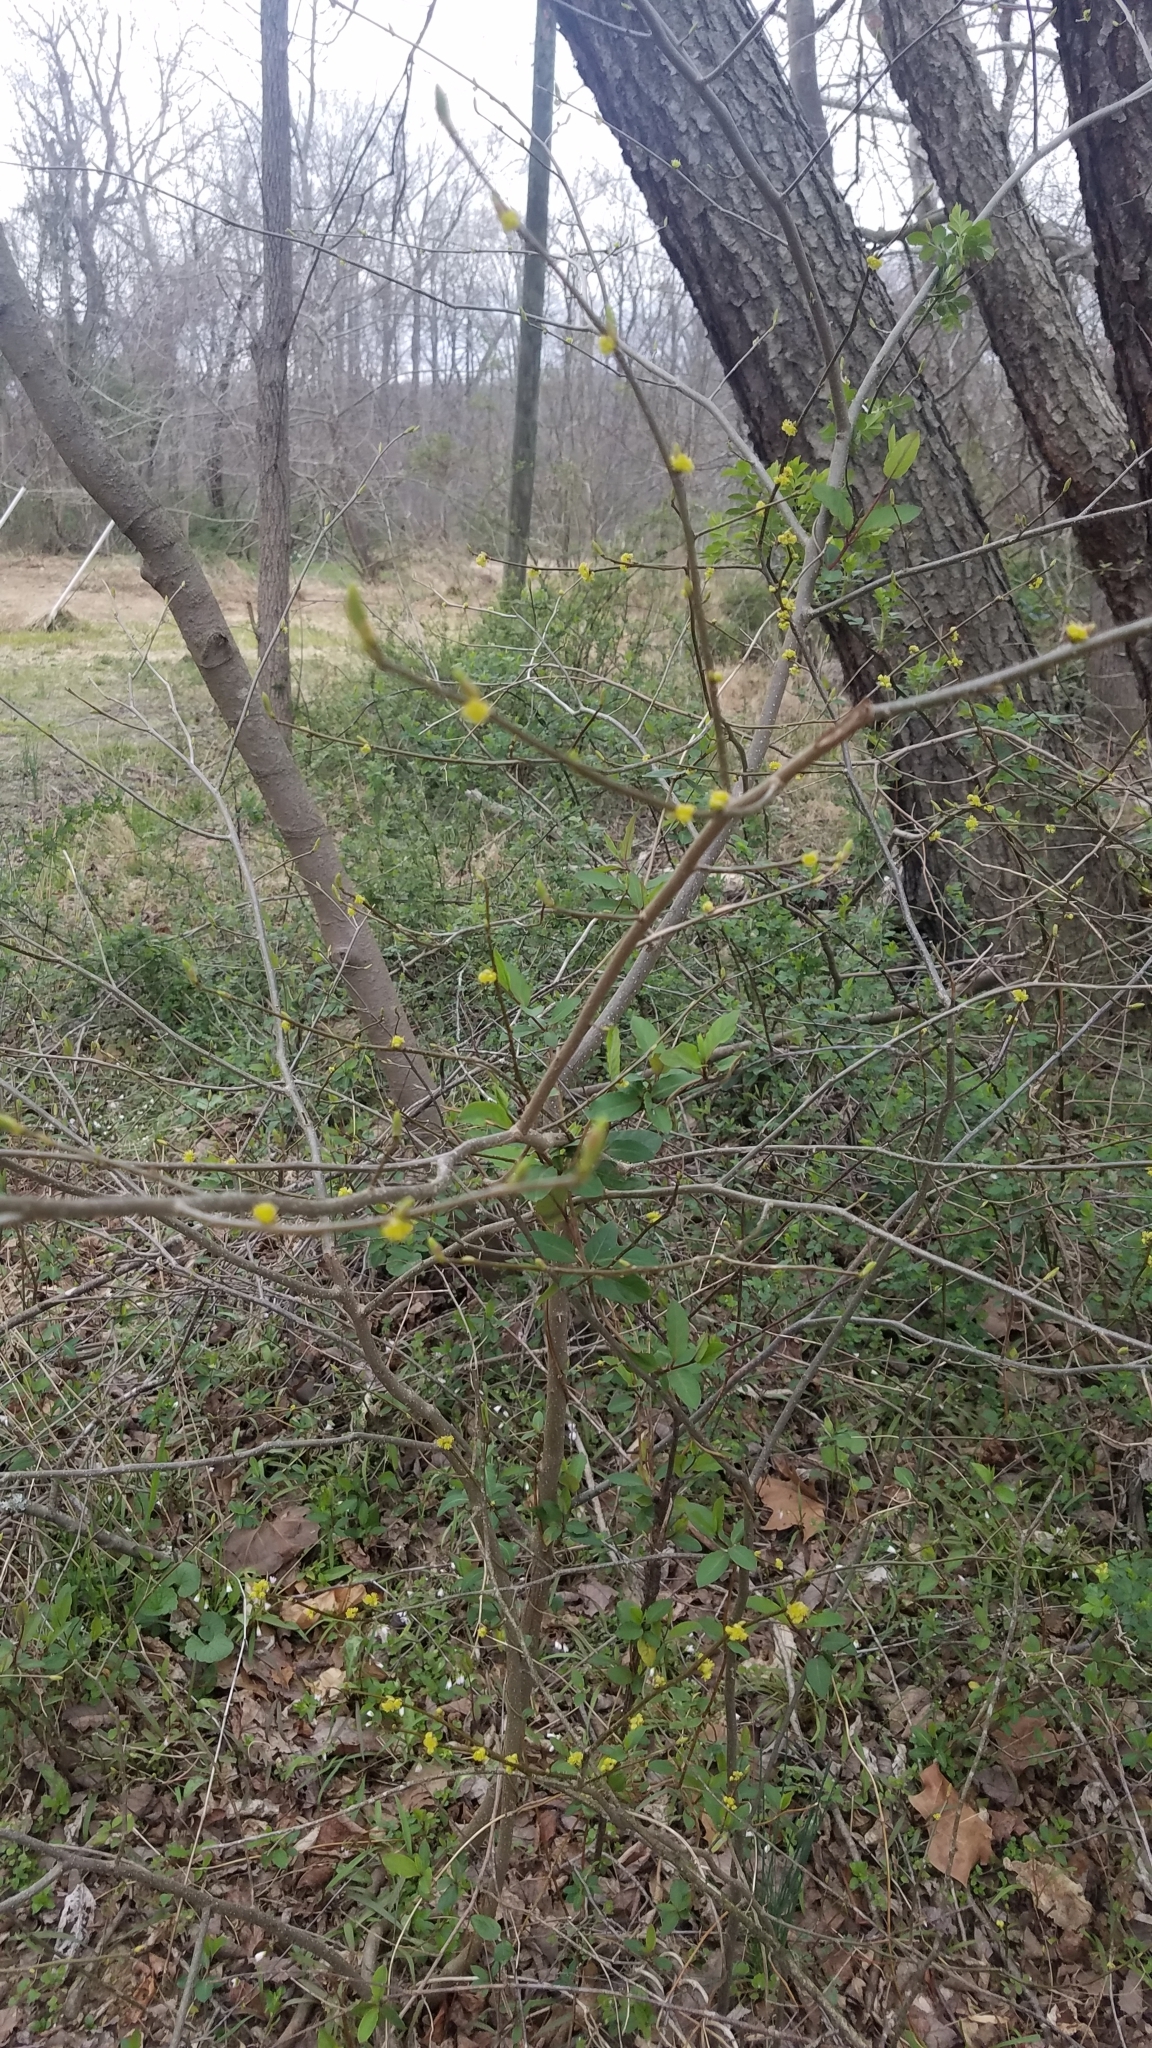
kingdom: Plantae
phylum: Tracheophyta
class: Magnoliopsida
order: Laurales
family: Lauraceae
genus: Lindera
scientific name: Lindera benzoin
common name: Spicebush
